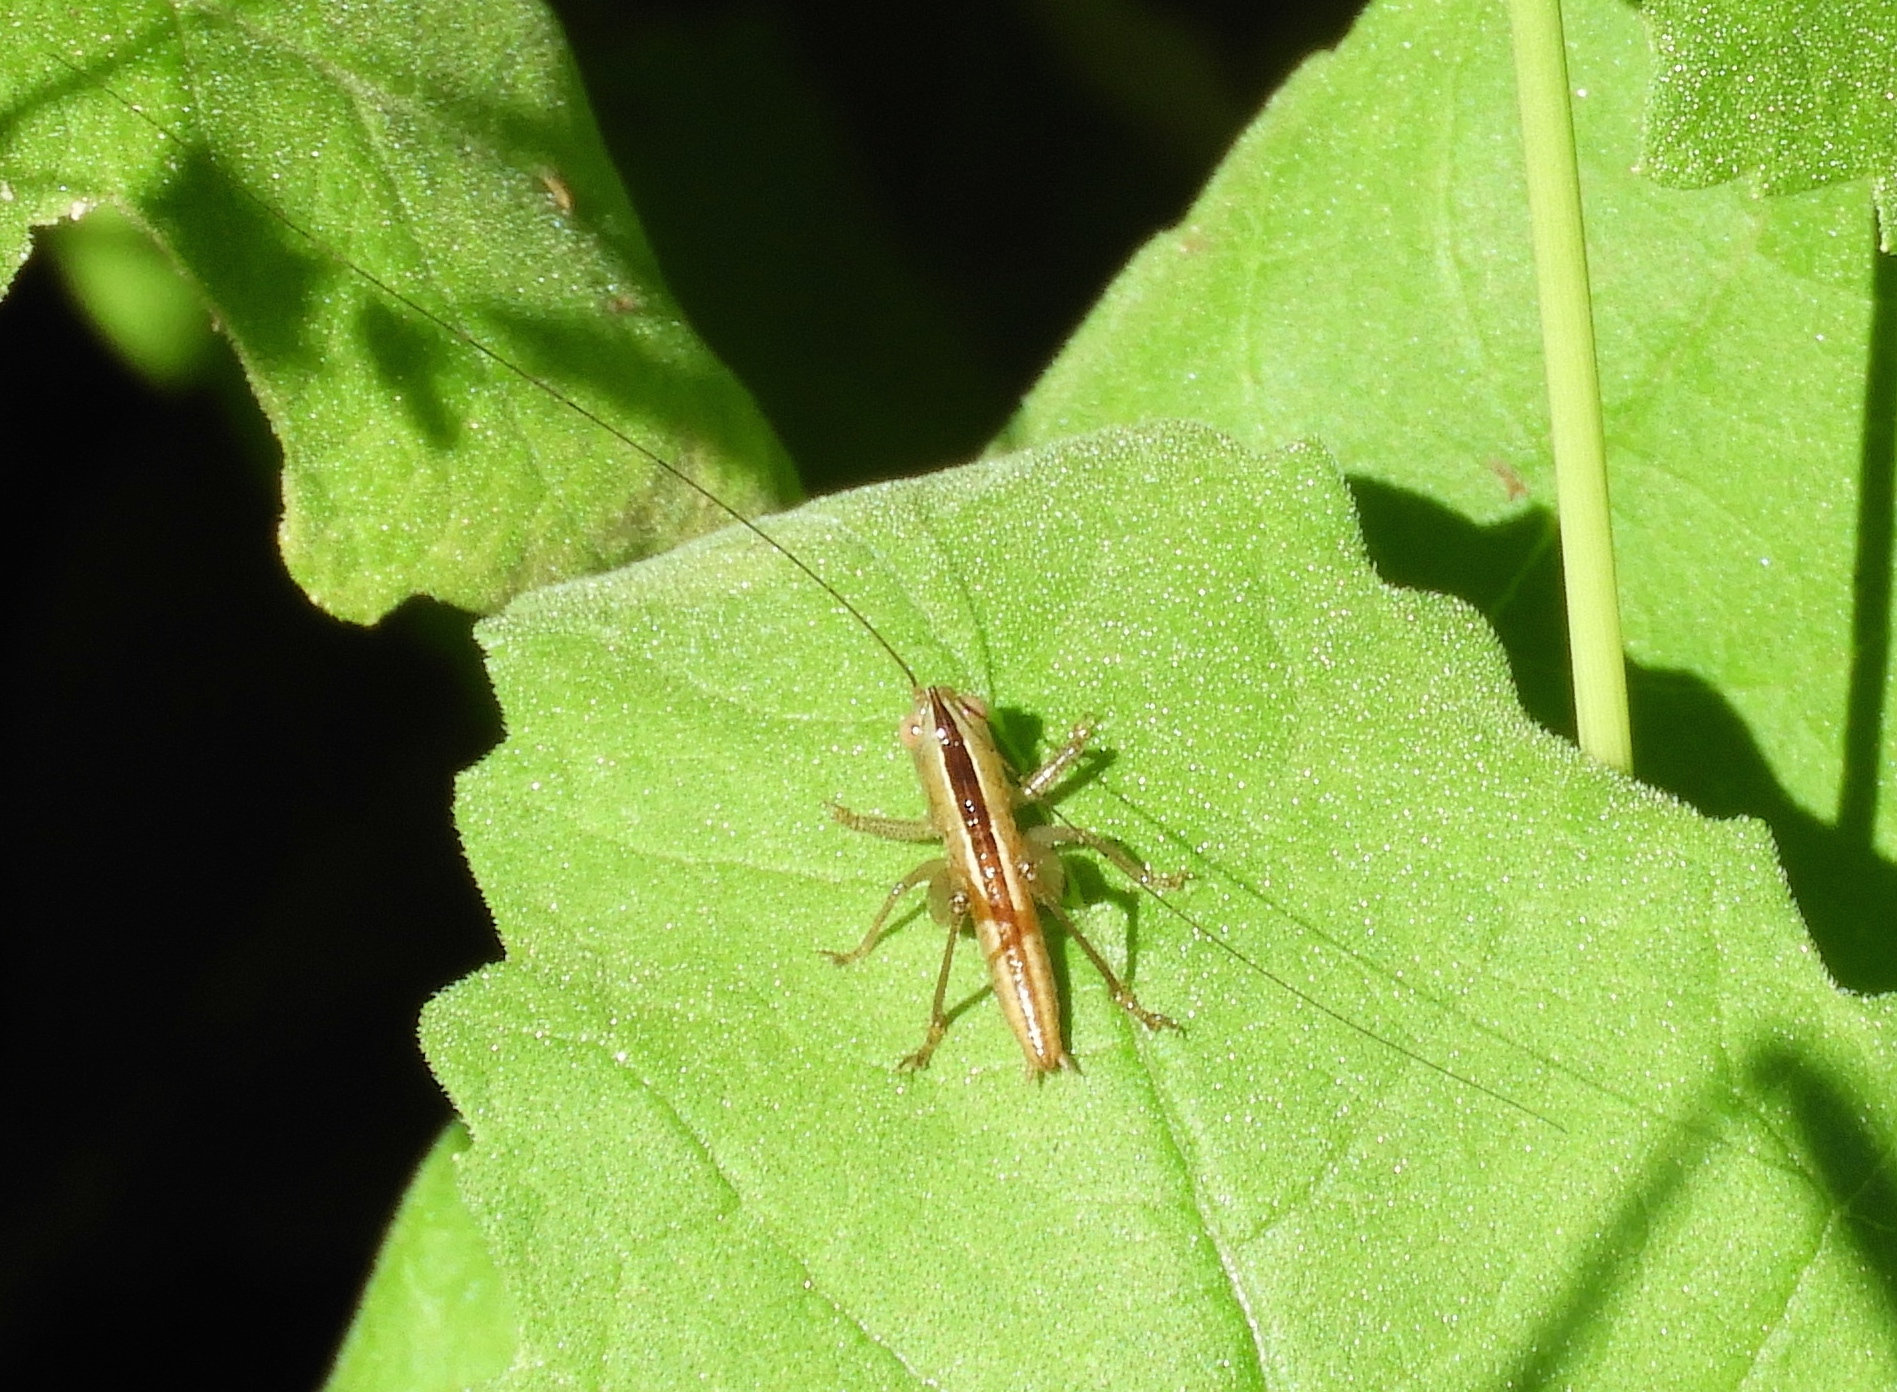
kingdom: Animalia
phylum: Arthropoda
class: Insecta
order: Orthoptera
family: Tettigoniidae
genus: Conocephalus
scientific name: Conocephalus
